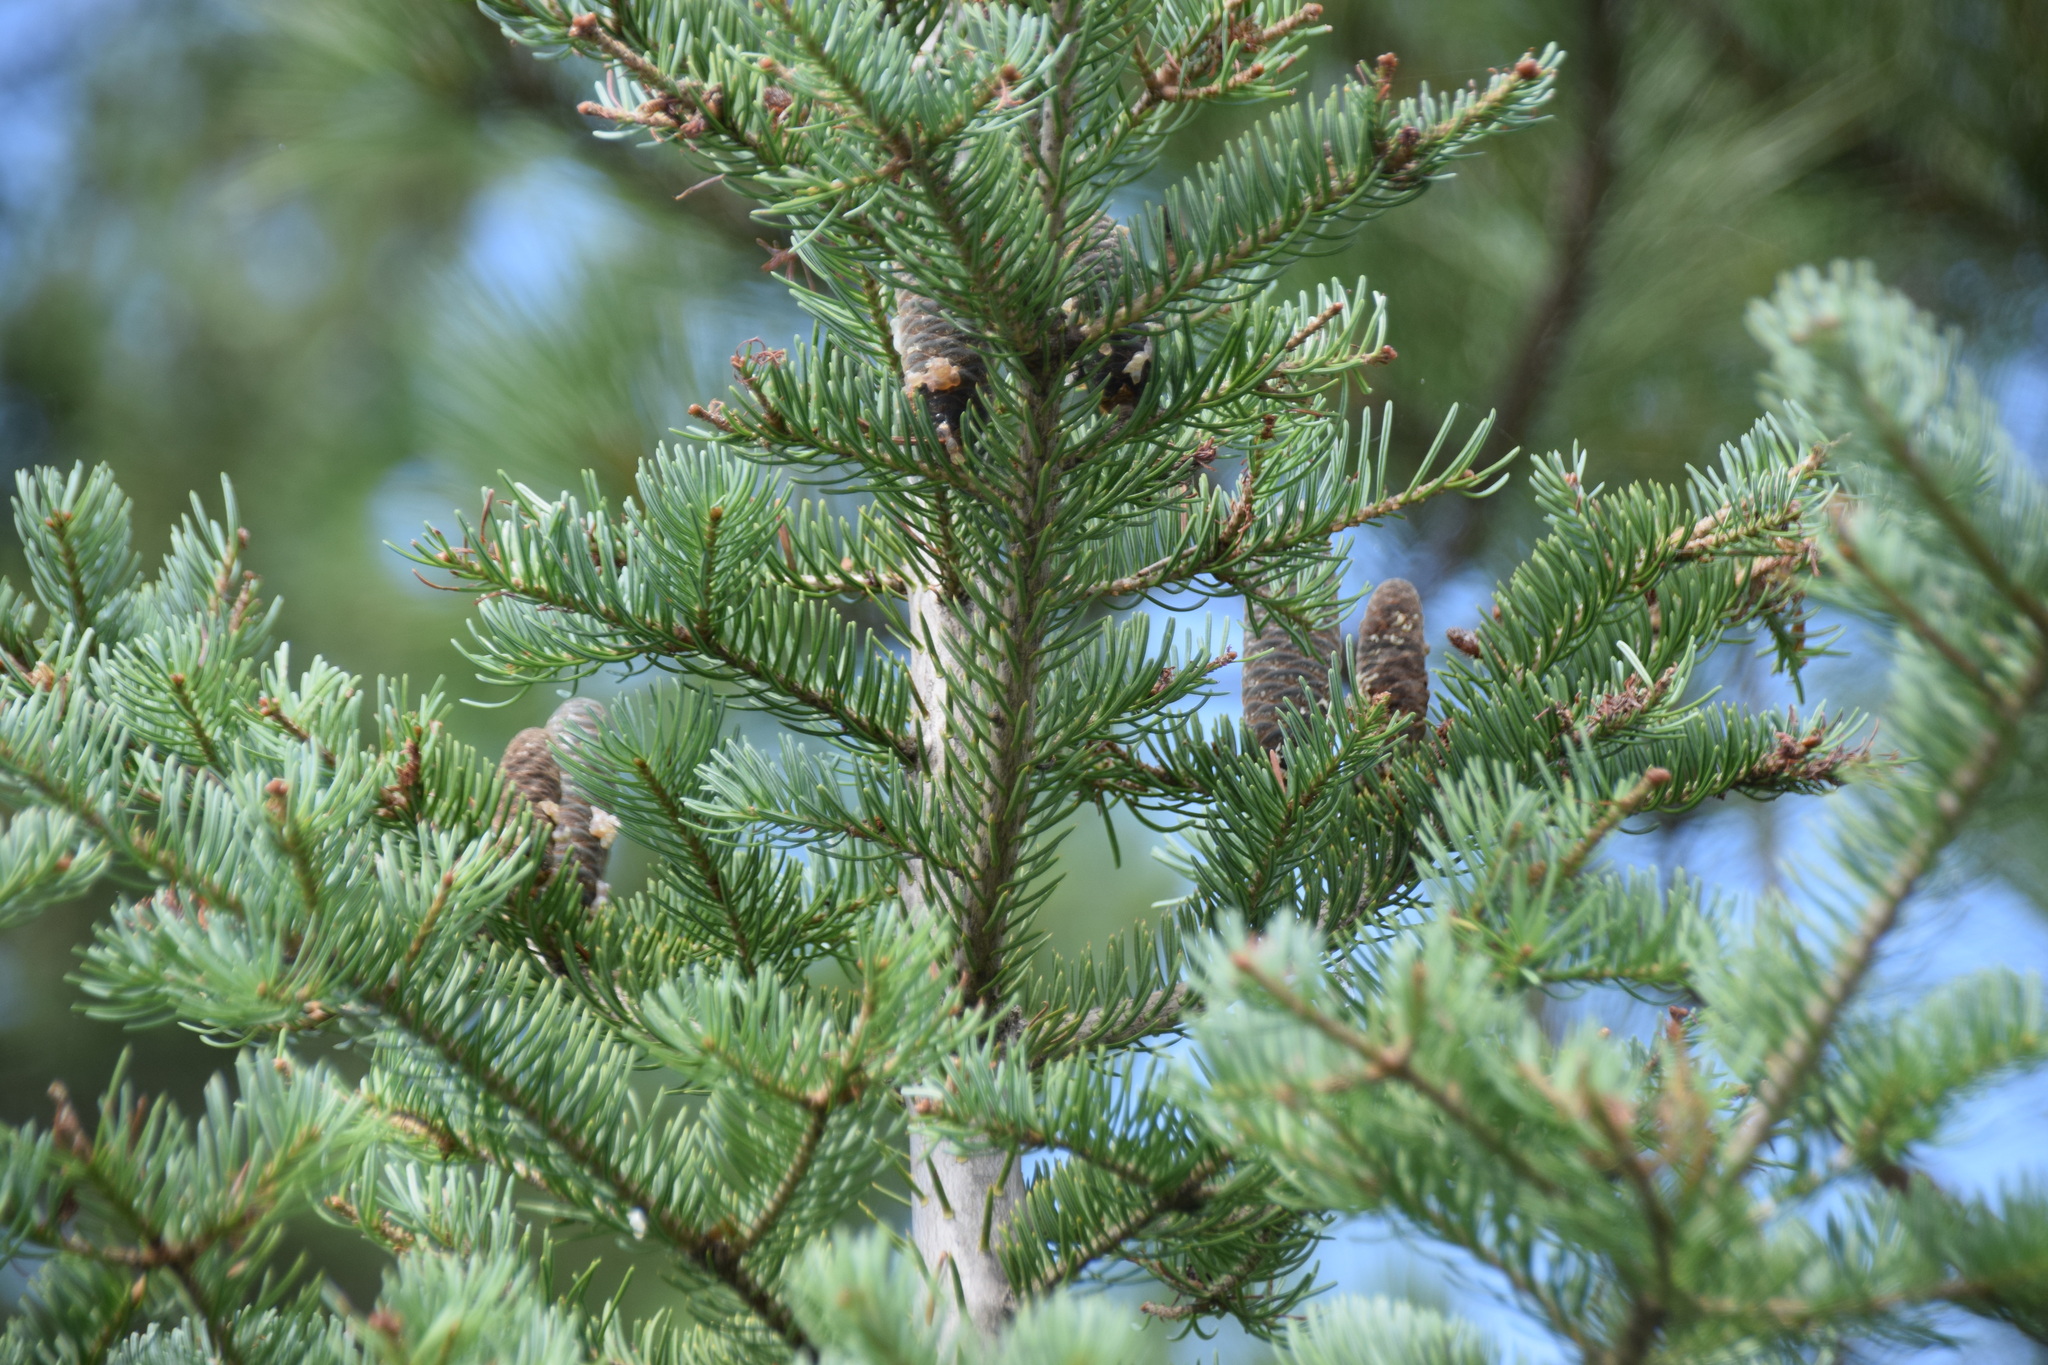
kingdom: Plantae
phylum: Tracheophyta
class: Pinopsida
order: Pinales
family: Pinaceae
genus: Abies
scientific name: Abies balsamea
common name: Balsam fir
